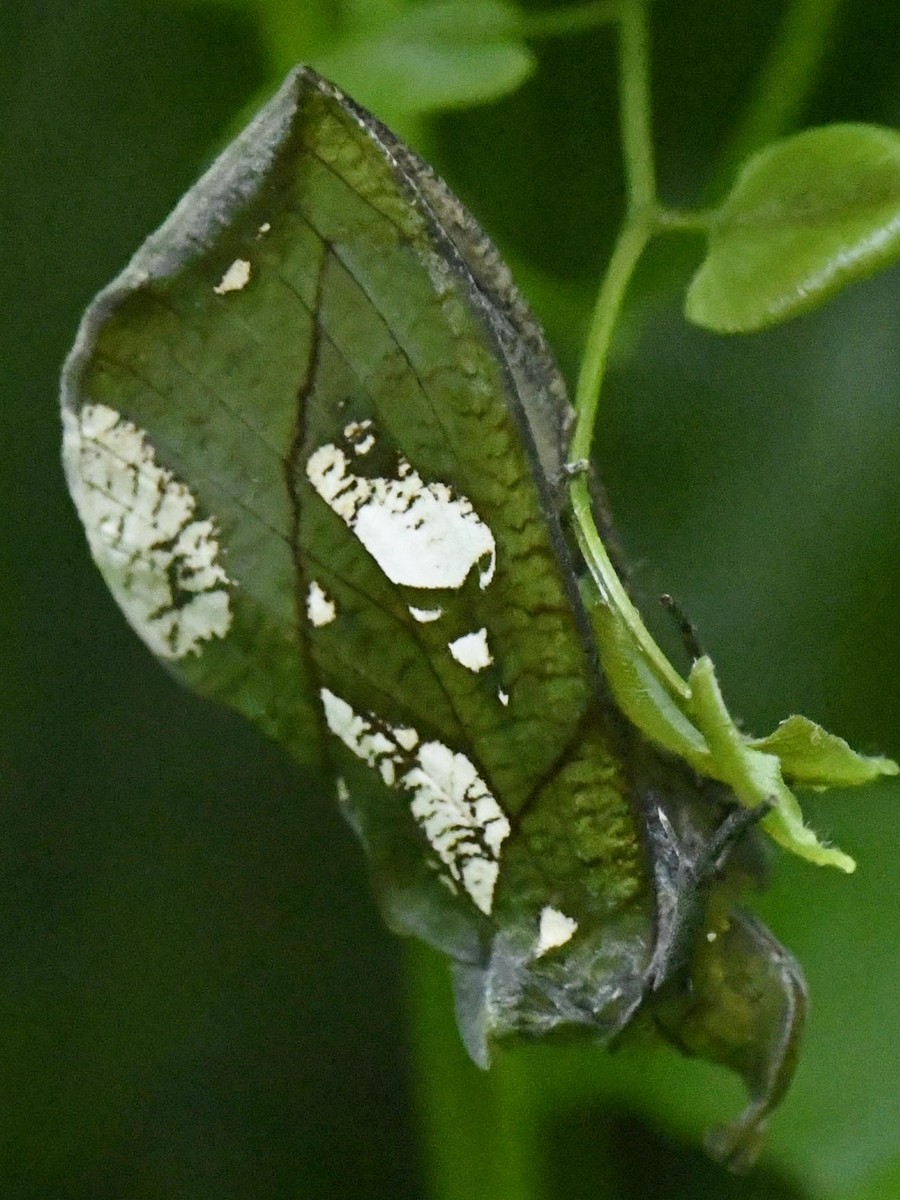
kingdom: Animalia
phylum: Arthropoda
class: Insecta
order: Lepidoptera
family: Erebidae
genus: Eudocima
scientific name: Eudocima hypermnestra
